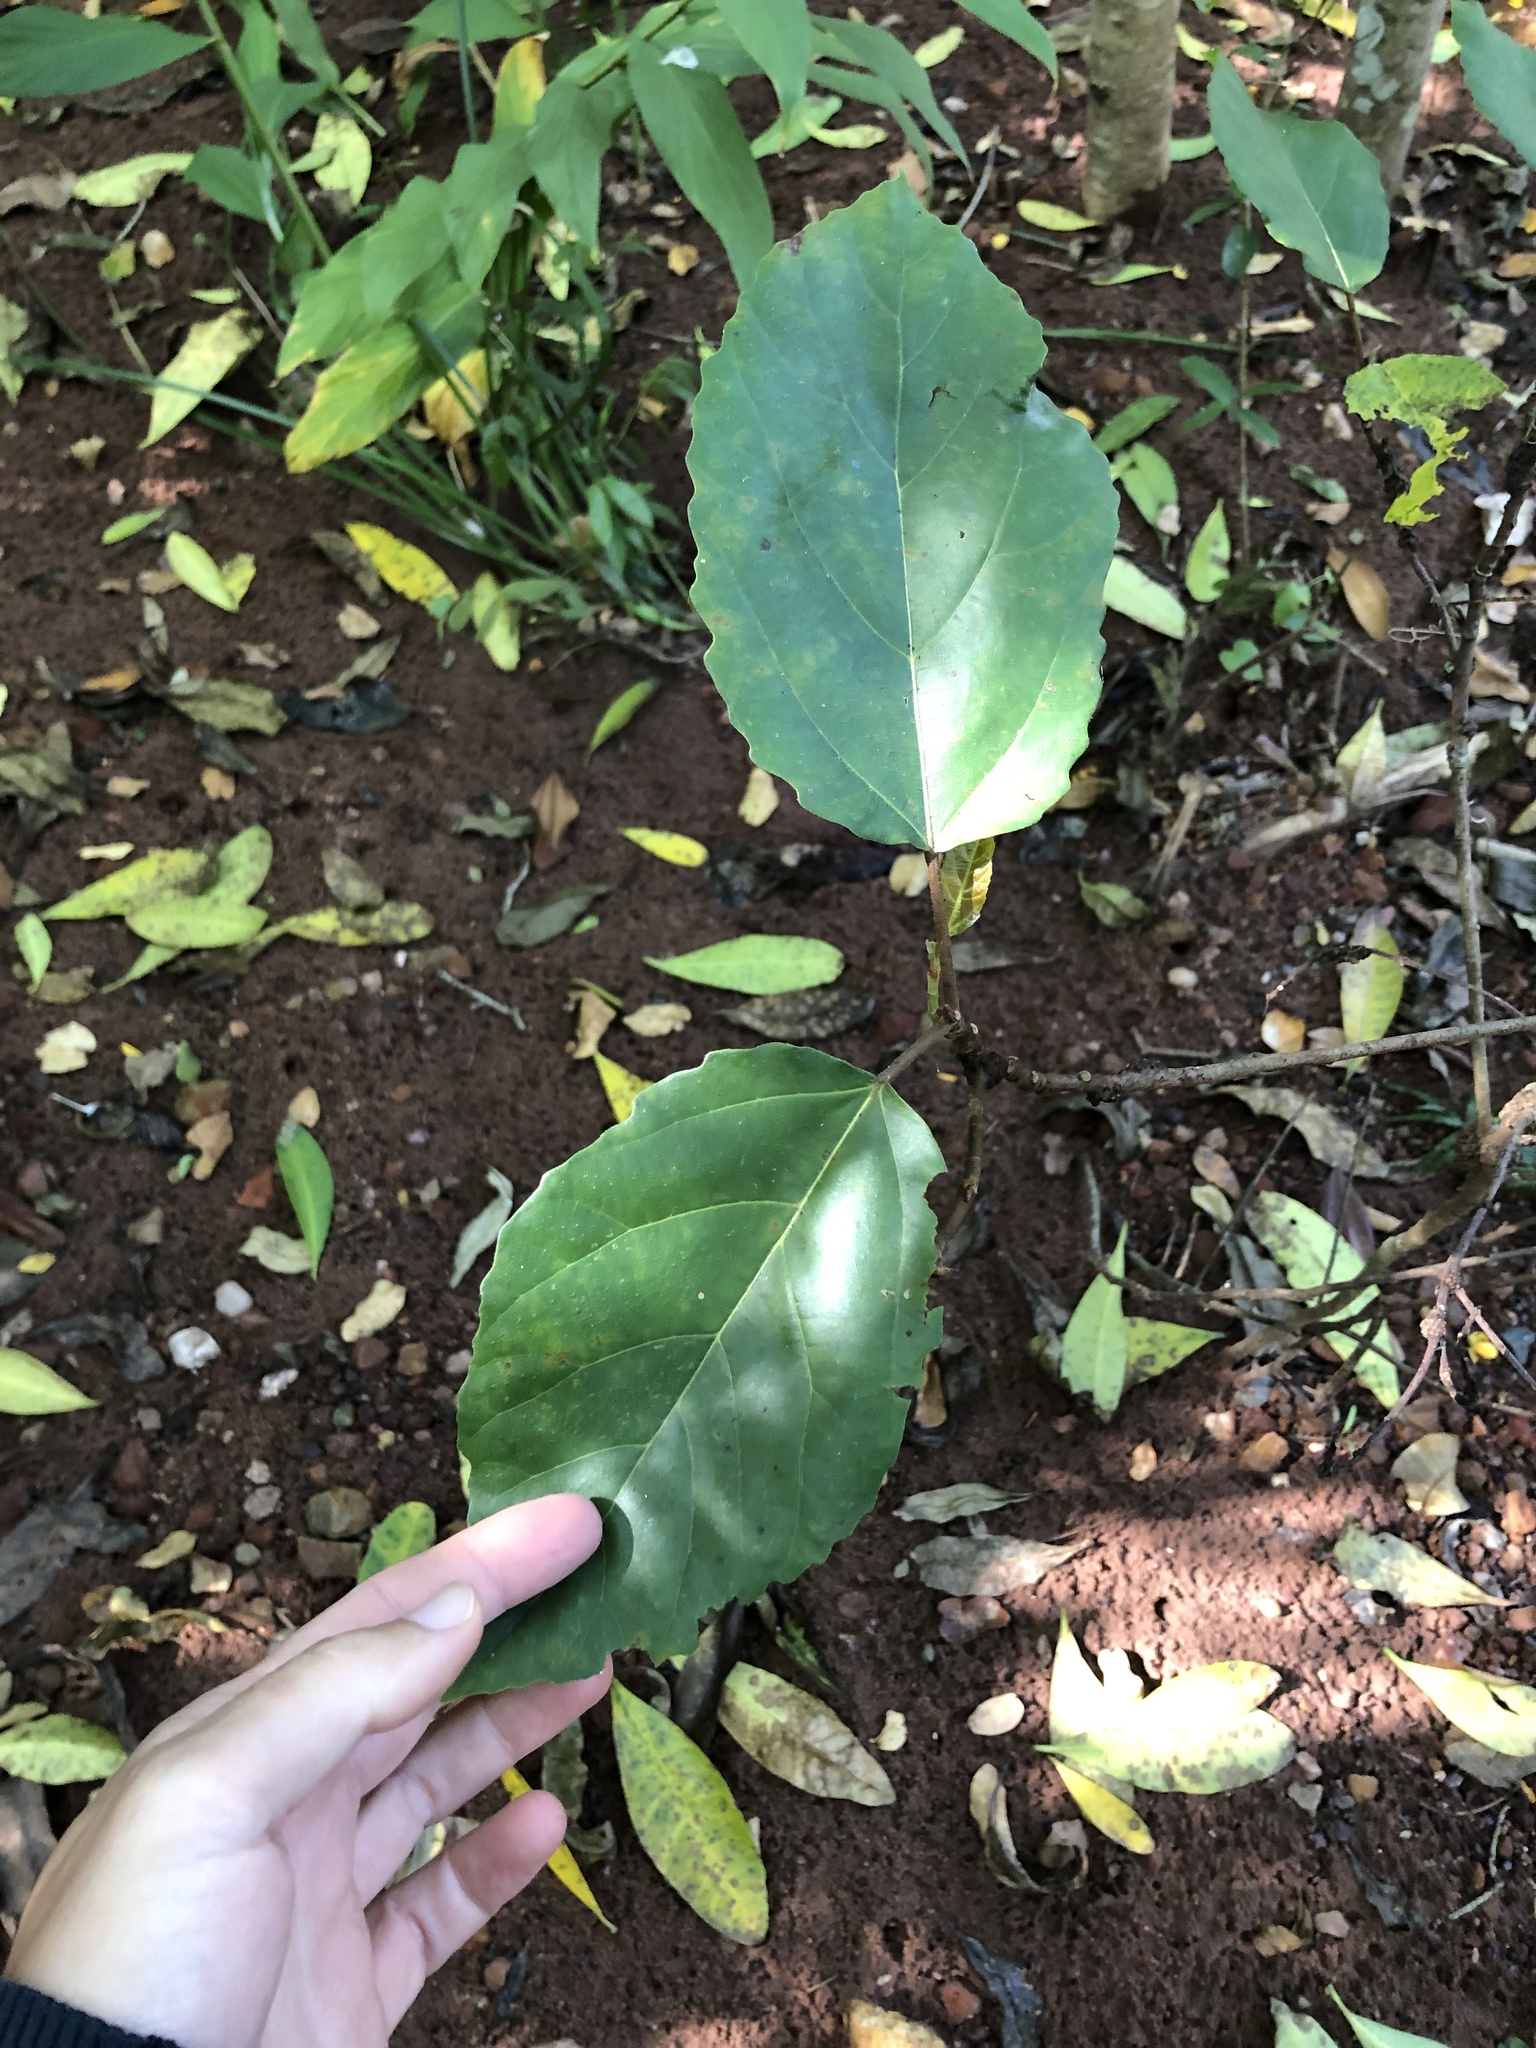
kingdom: Plantae
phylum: Tracheophyta
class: Magnoliopsida
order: Rosales
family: Moraceae
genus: Ficus
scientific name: Ficus sur
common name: Cape fig
